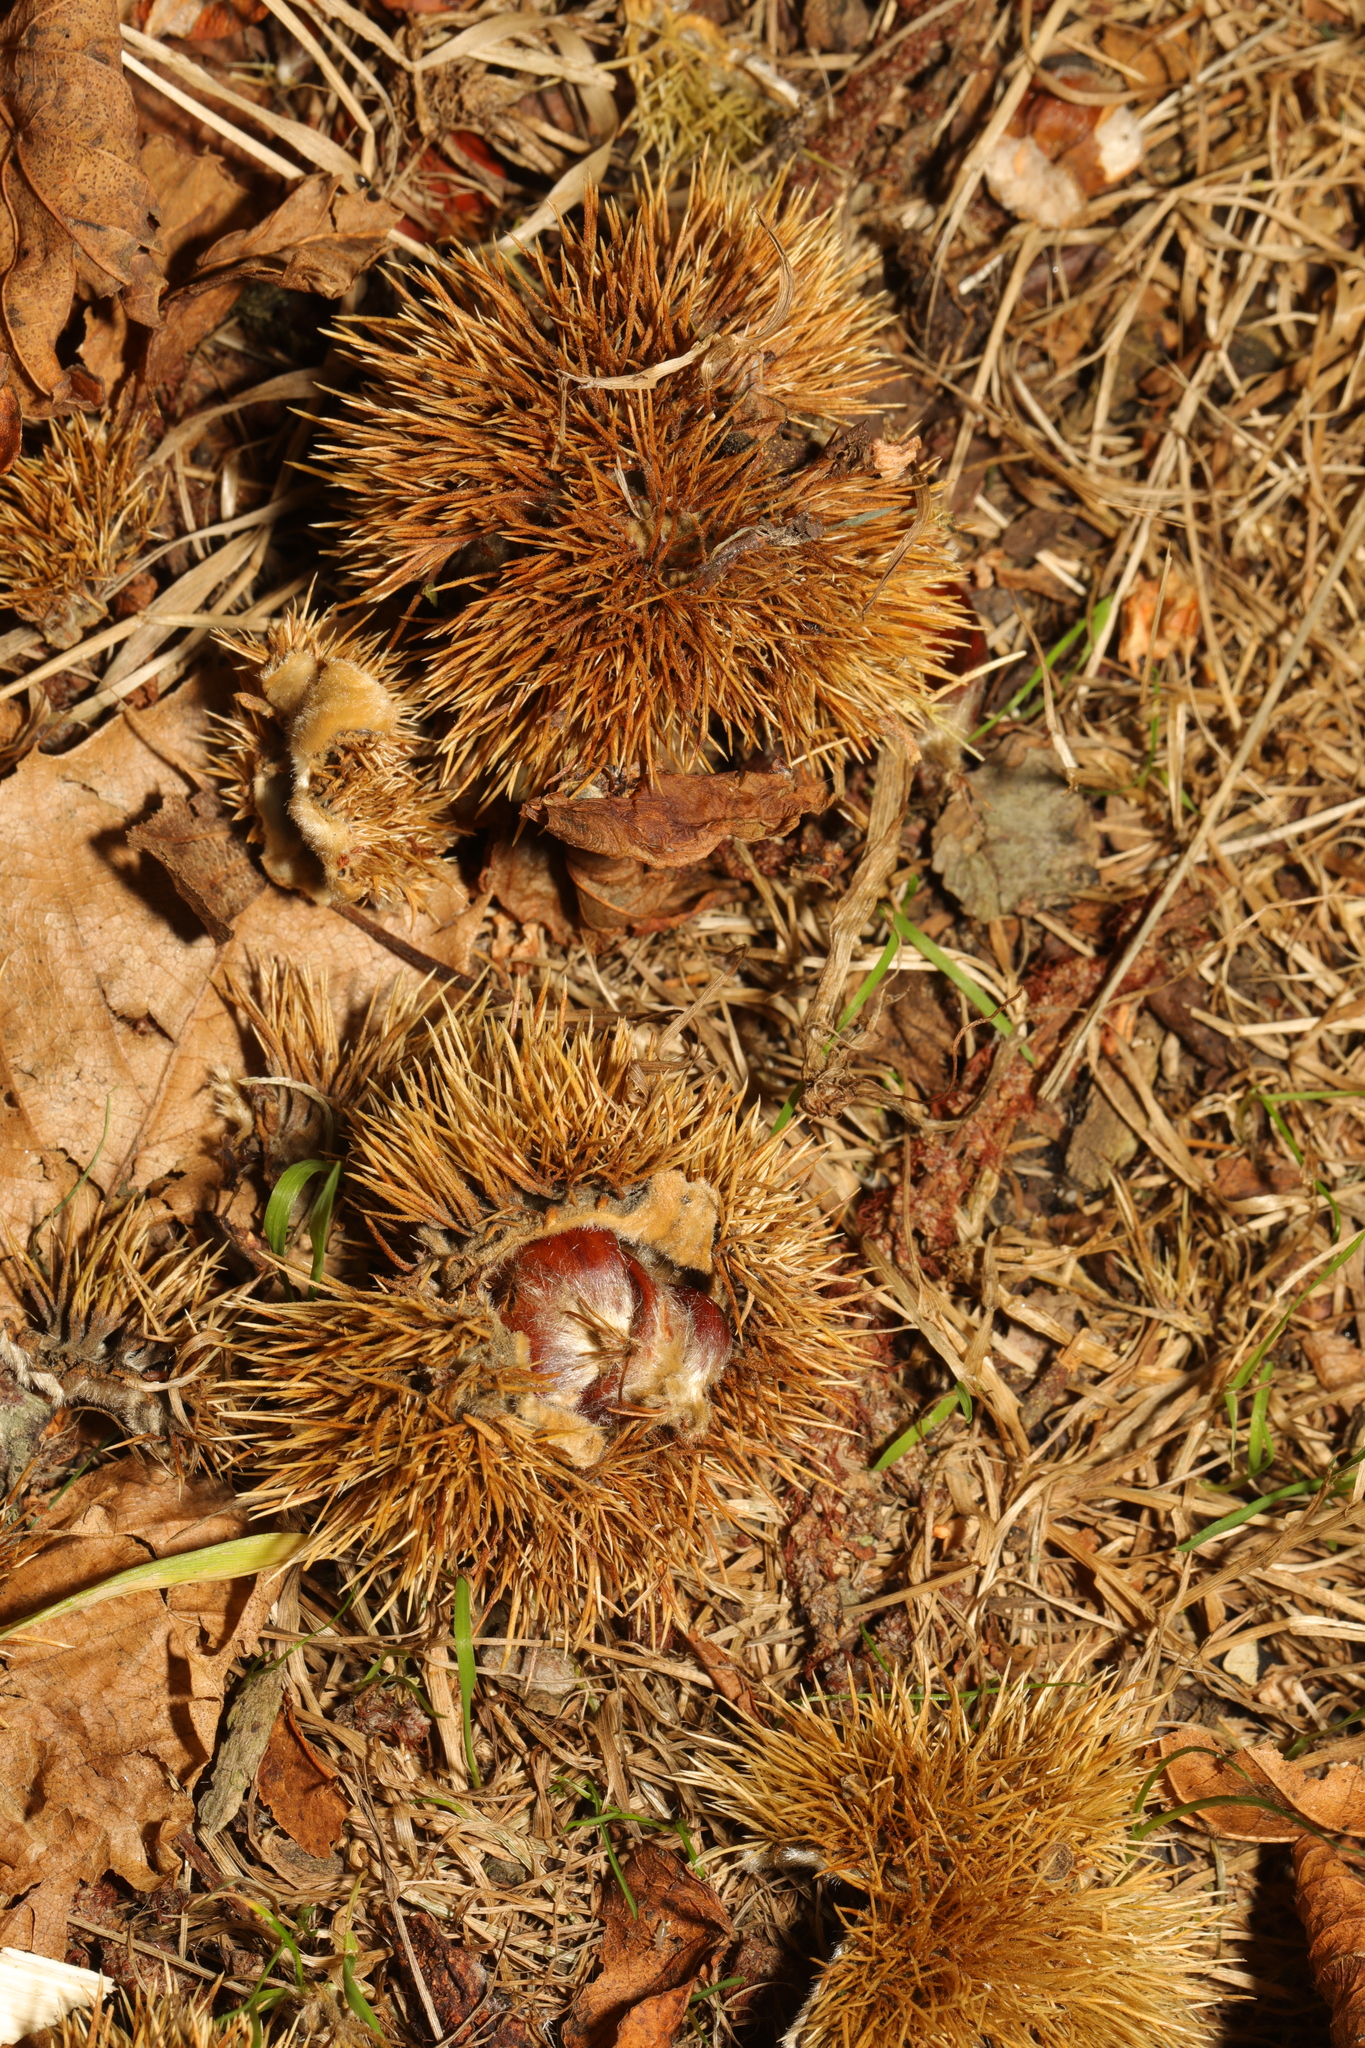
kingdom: Plantae
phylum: Tracheophyta
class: Magnoliopsida
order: Fagales
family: Fagaceae
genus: Castanea
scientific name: Castanea sativa
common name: Sweet chestnut
